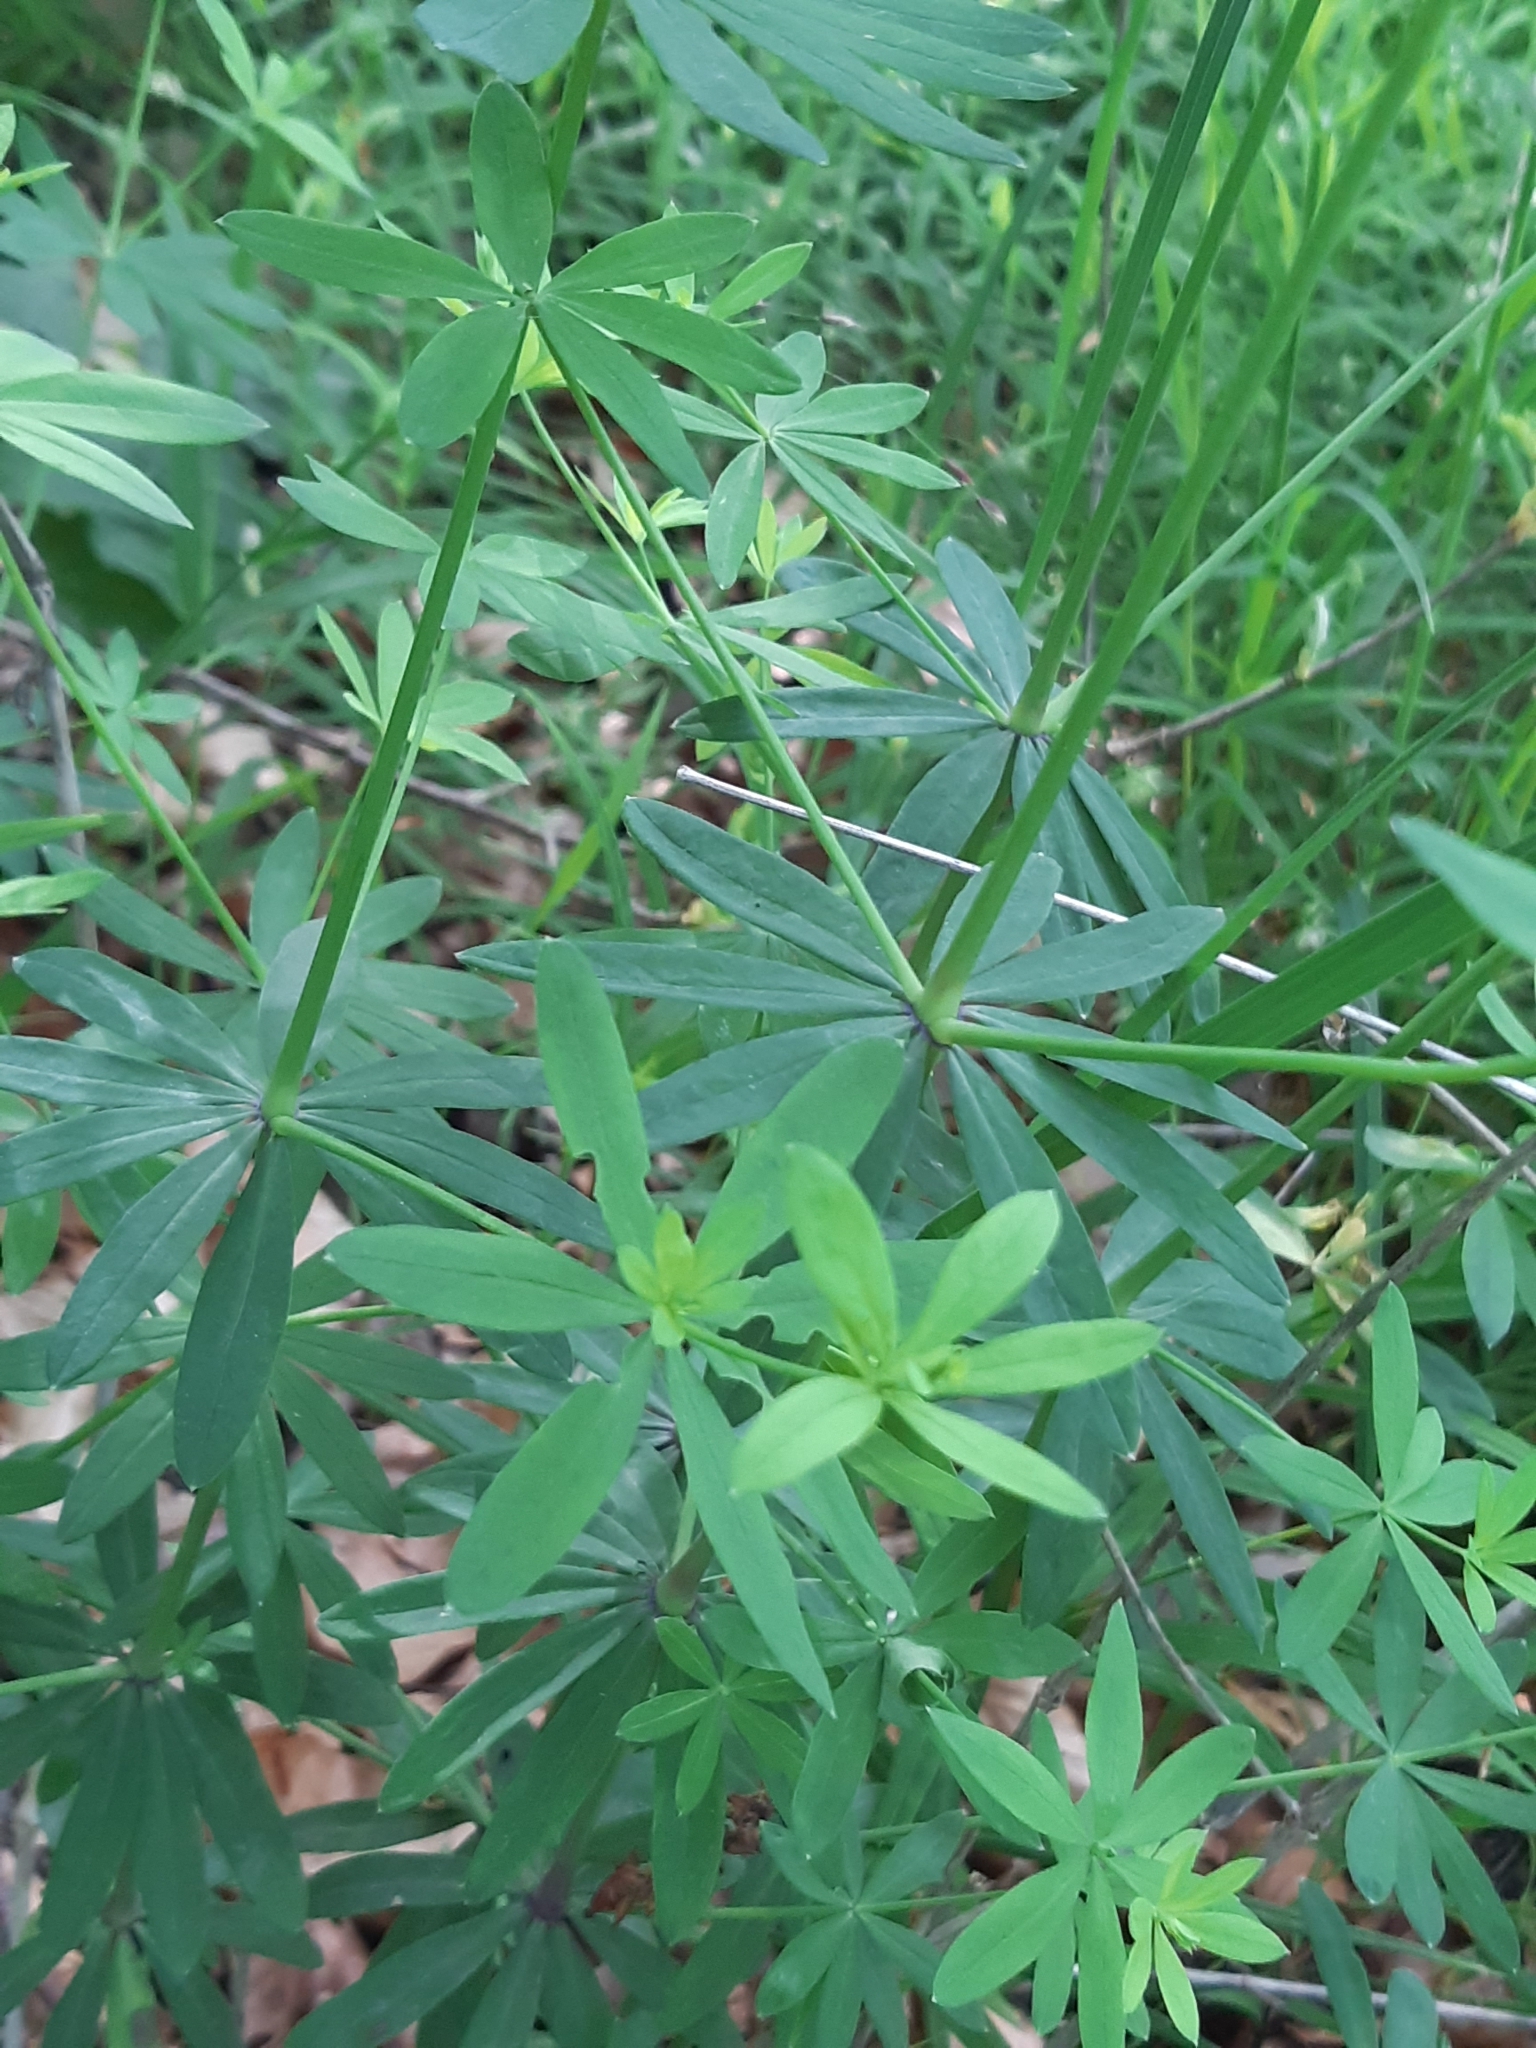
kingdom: Plantae
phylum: Tracheophyta
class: Magnoliopsida
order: Gentianales
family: Rubiaceae
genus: Galium
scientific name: Galium sylvaticum
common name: Wood bedstraw
